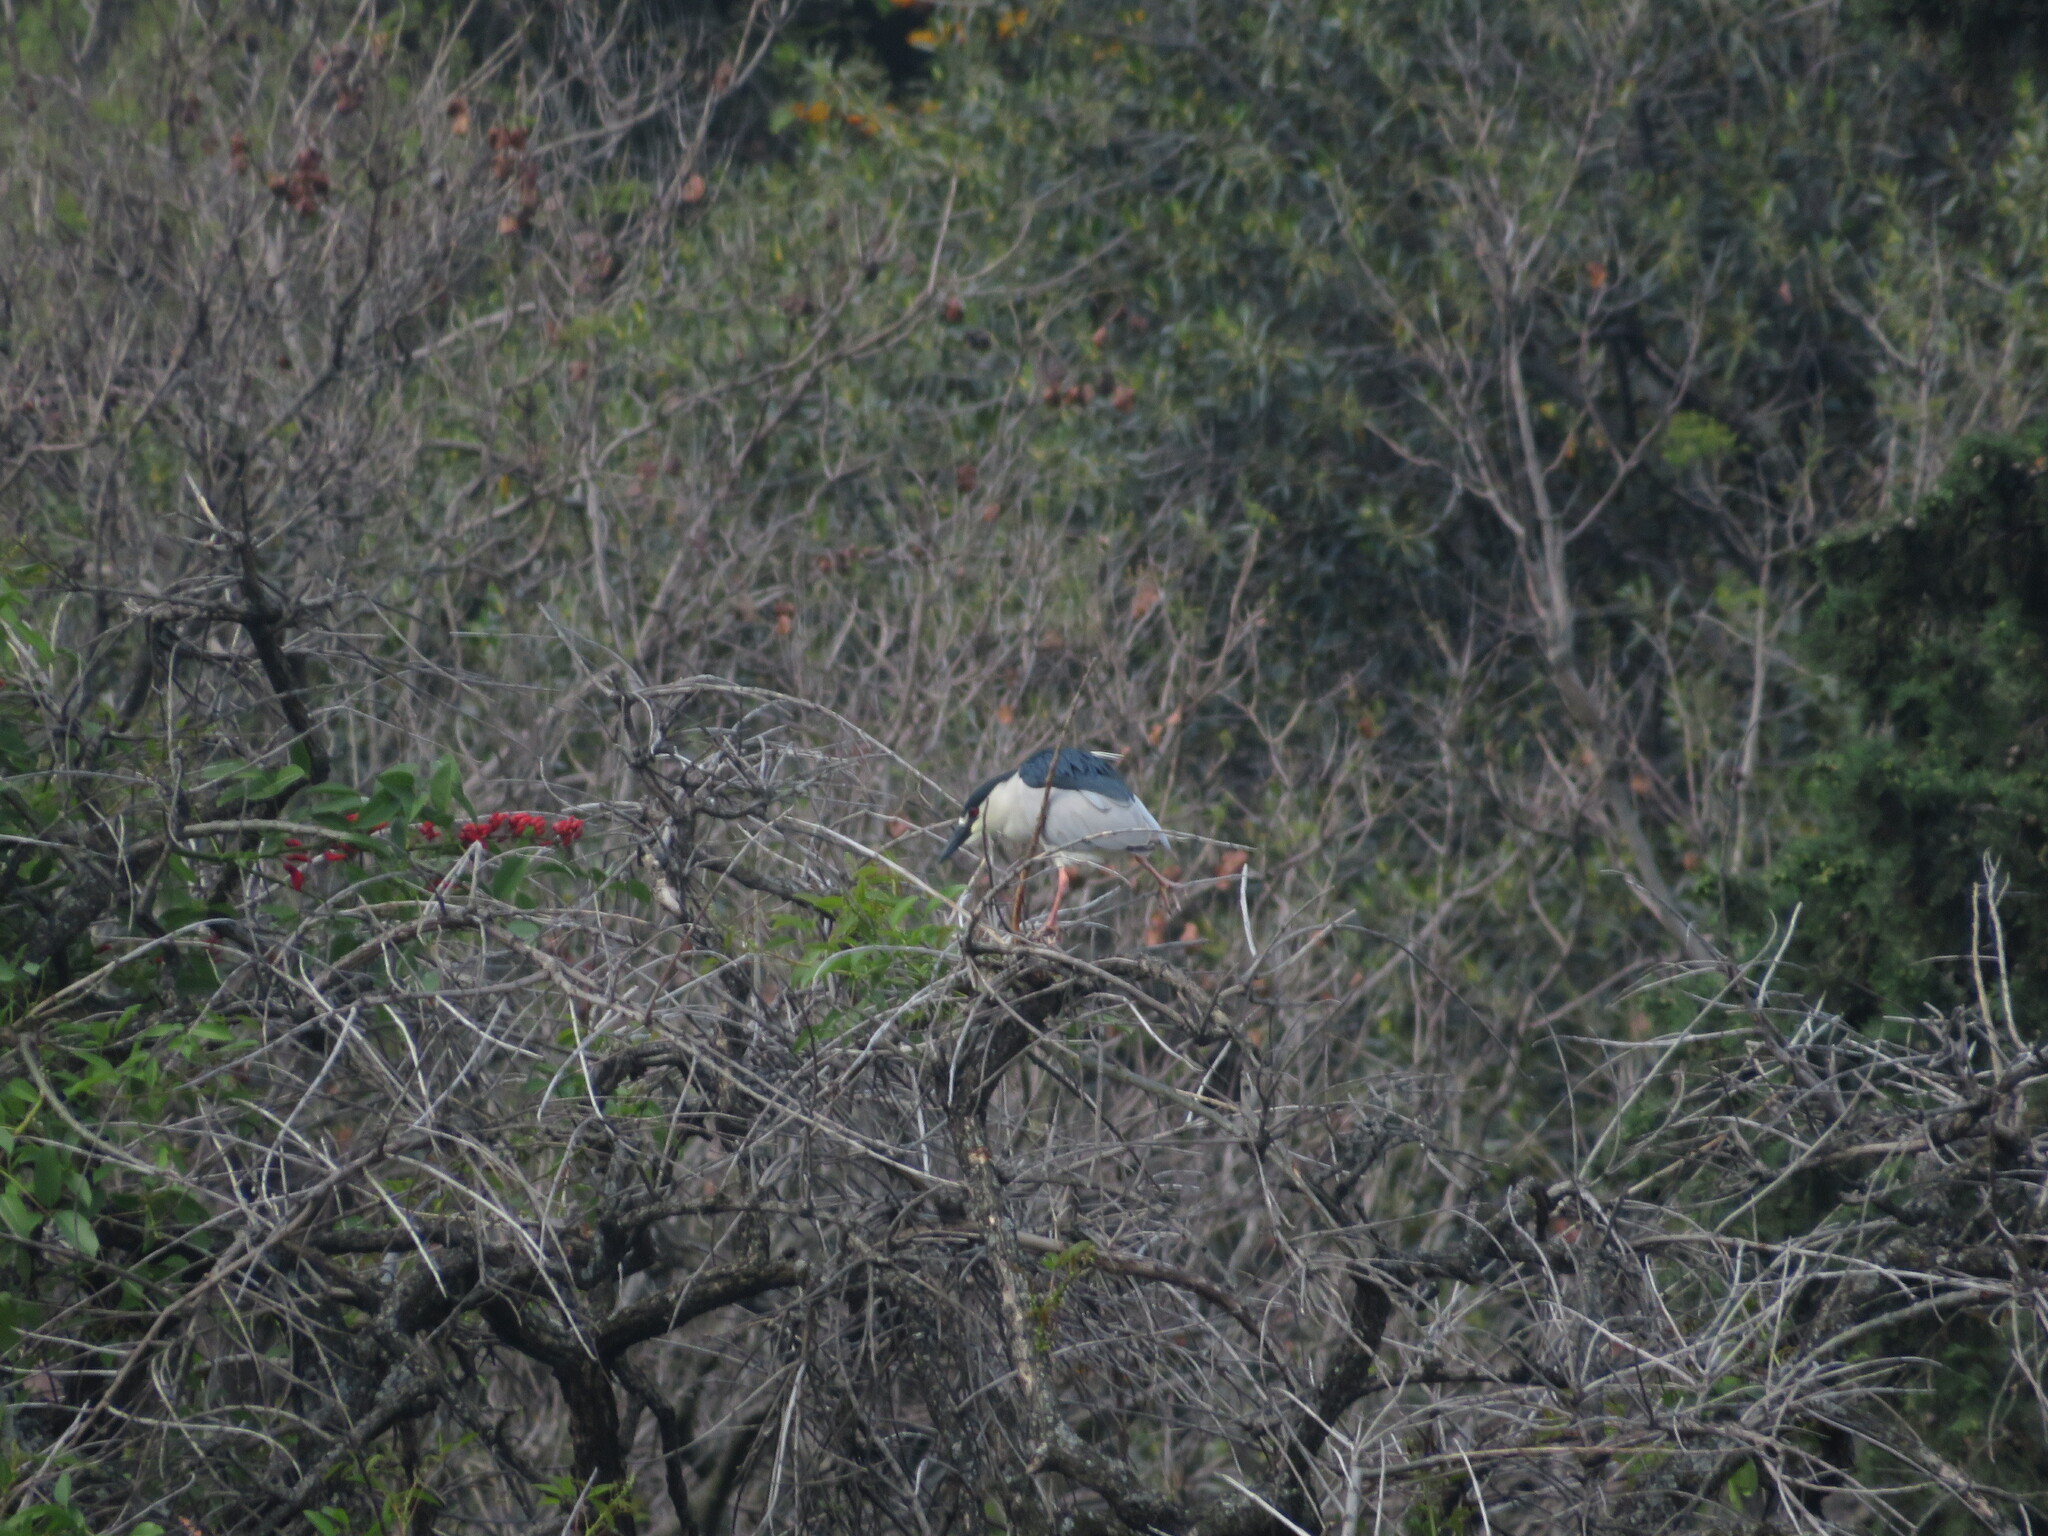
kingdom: Animalia
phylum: Chordata
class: Aves
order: Pelecaniformes
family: Ardeidae
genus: Nycticorax
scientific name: Nycticorax nycticorax
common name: Black-crowned night heron
